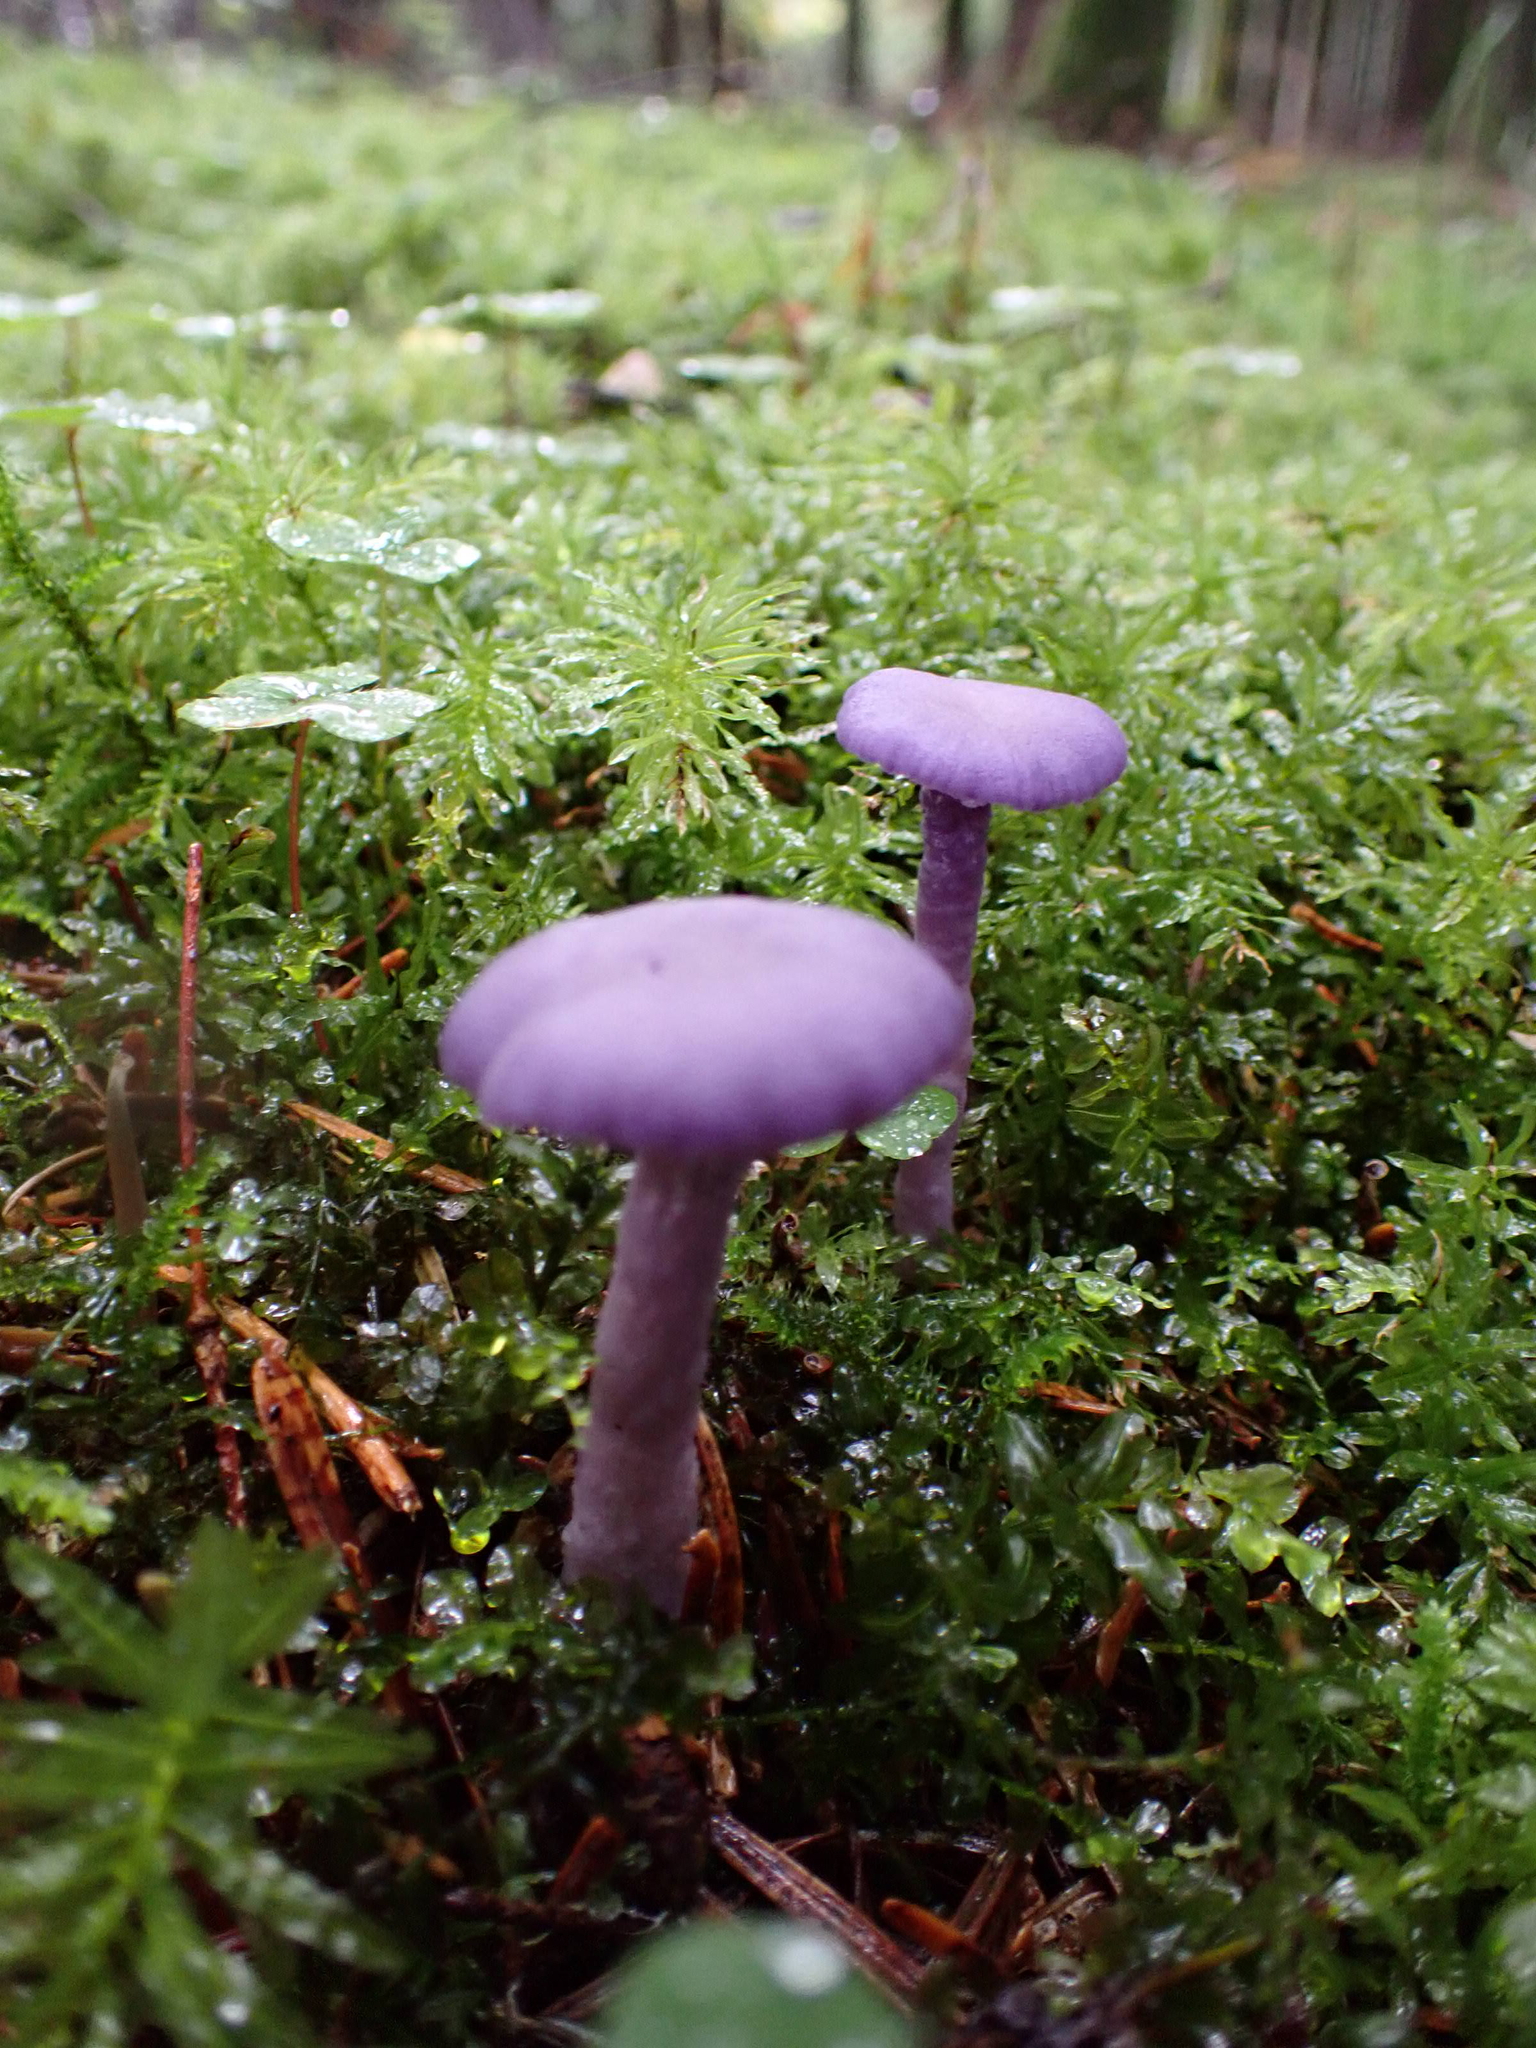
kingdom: Fungi
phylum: Basidiomycota
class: Agaricomycetes
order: Agaricales
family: Hydnangiaceae
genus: Laccaria
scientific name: Laccaria amethystina
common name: Amethyst deceiver
